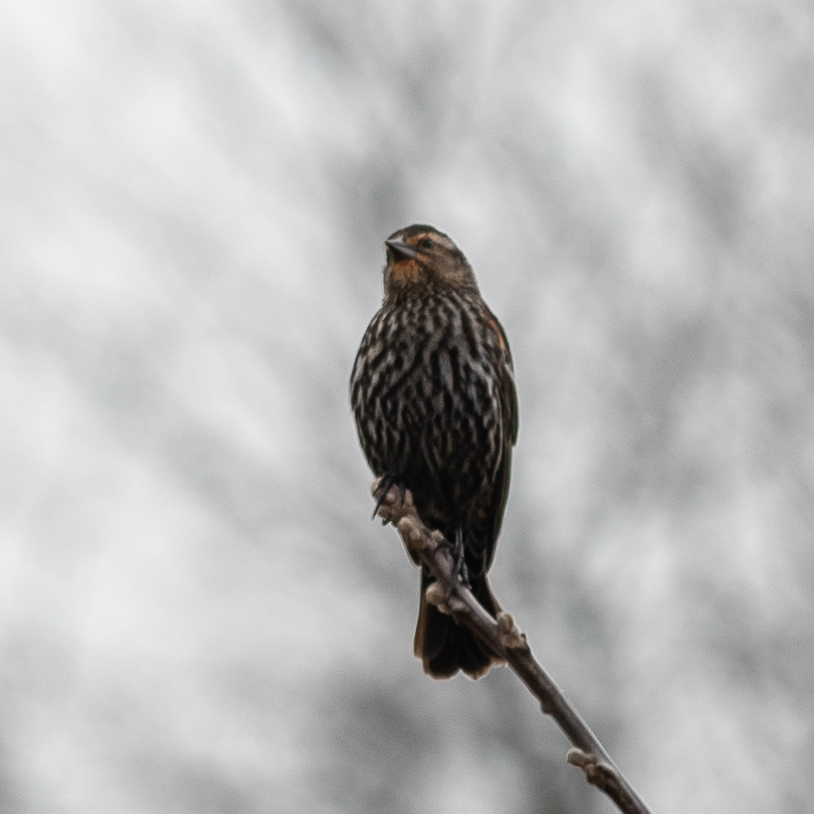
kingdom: Animalia
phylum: Chordata
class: Aves
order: Passeriformes
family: Icteridae
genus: Agelaius
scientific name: Agelaius phoeniceus
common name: Red-winged blackbird
